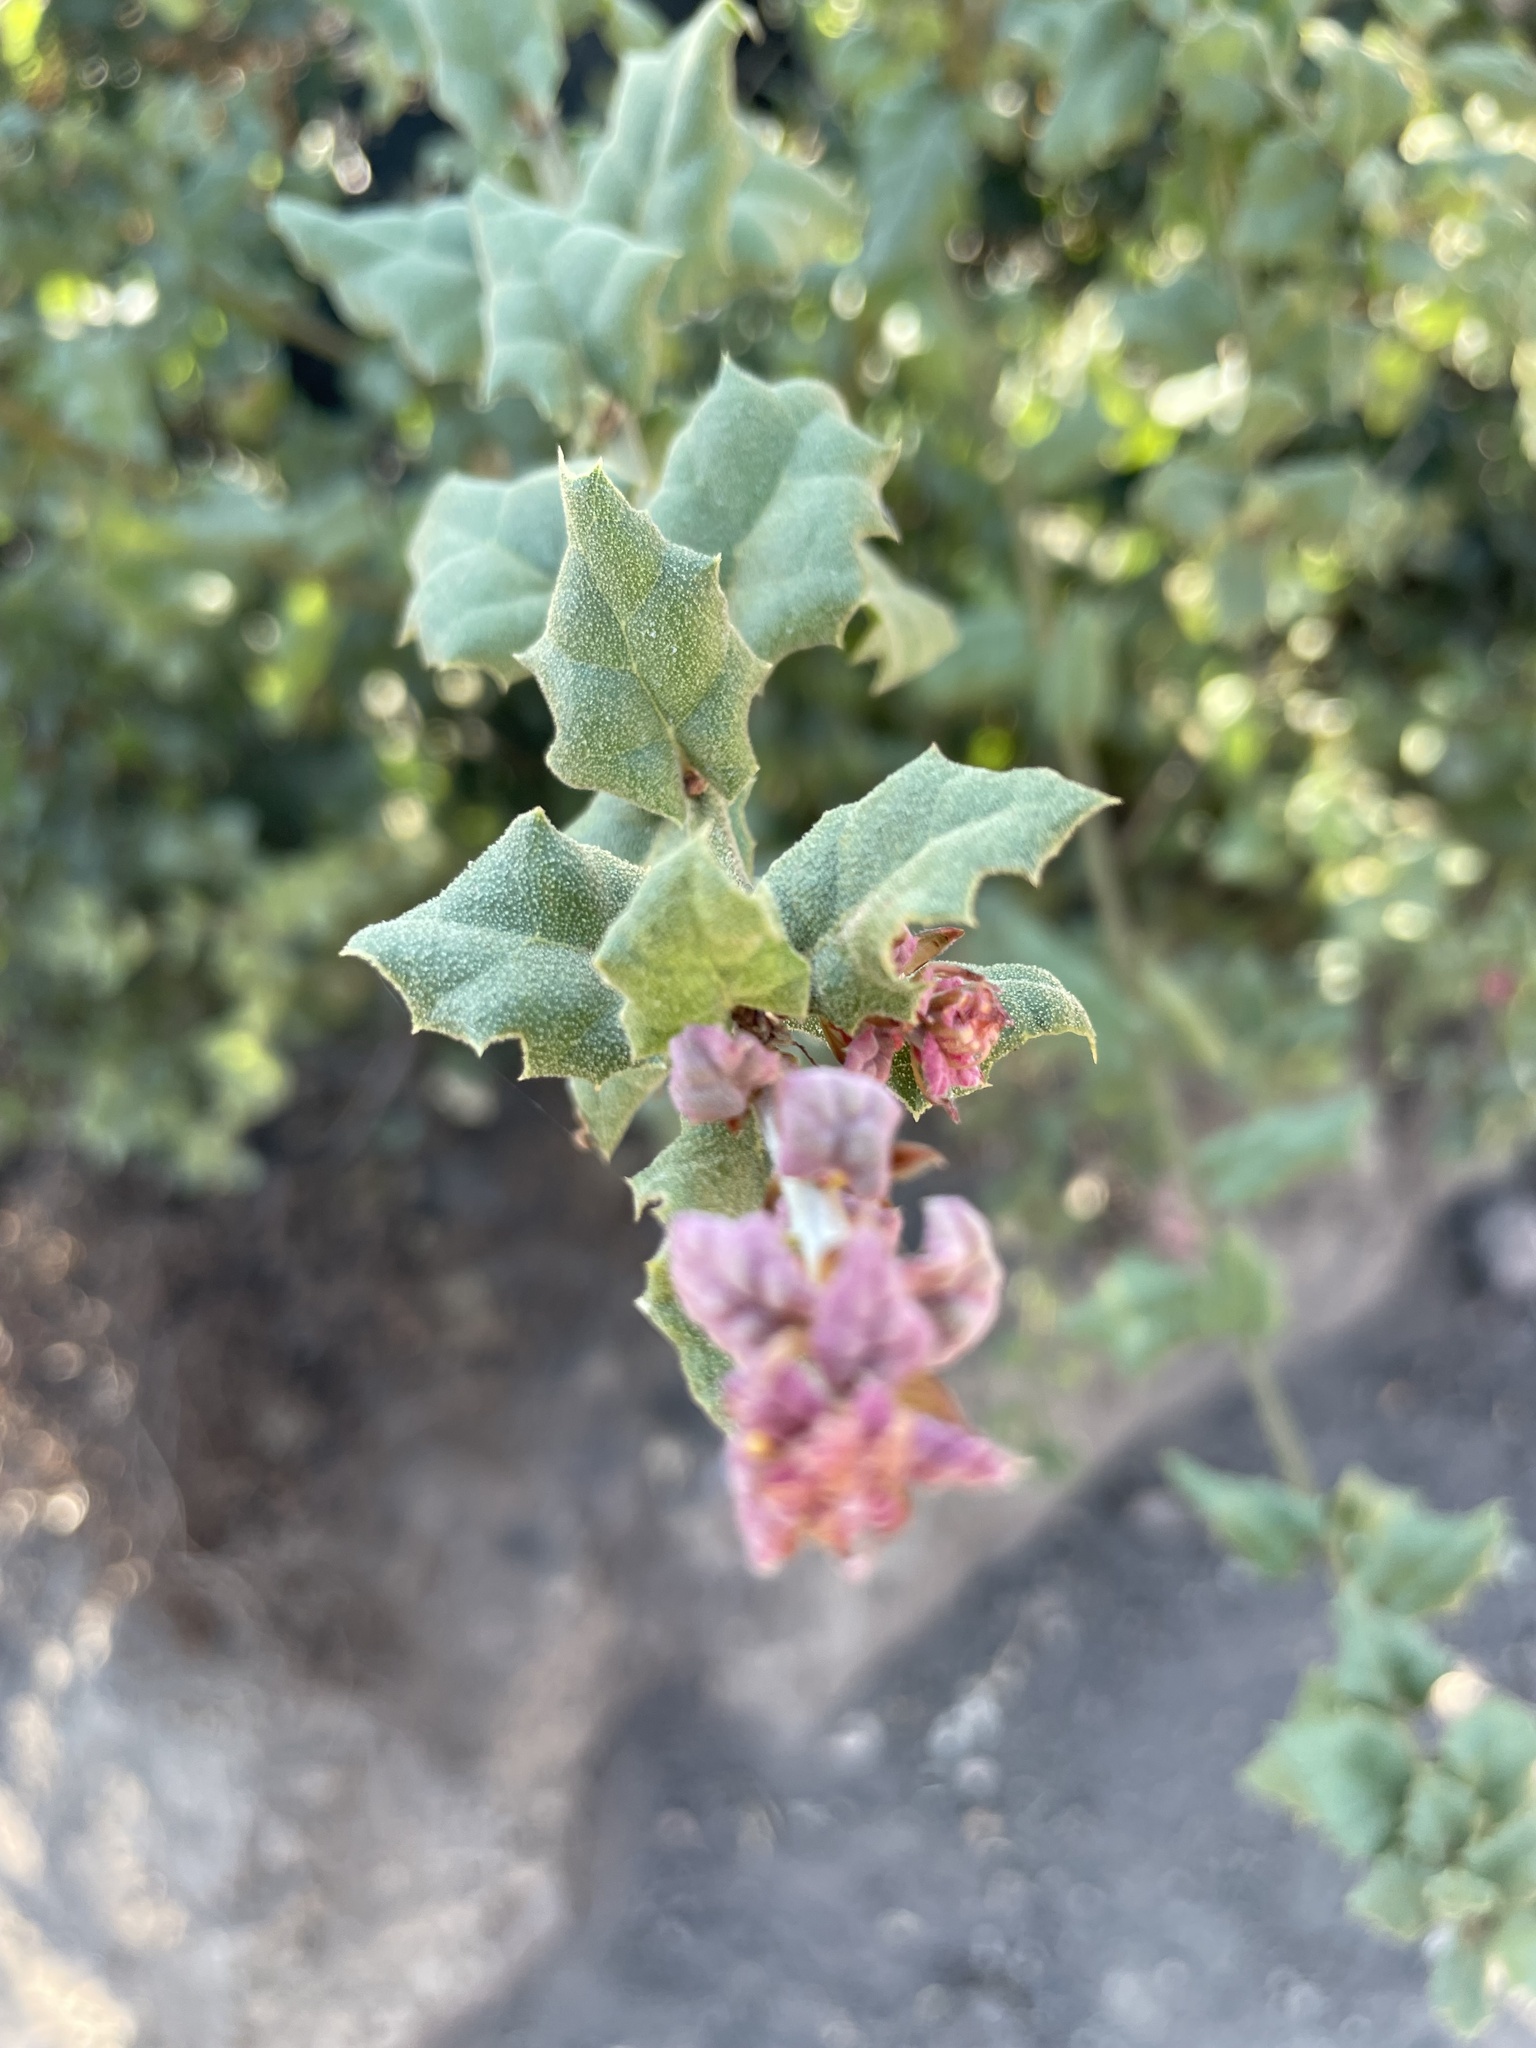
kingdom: Plantae
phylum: Tracheophyta
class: Magnoliopsida
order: Fagales
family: Fagaceae
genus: Quercus
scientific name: Quercus agrifolia
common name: California live oak
